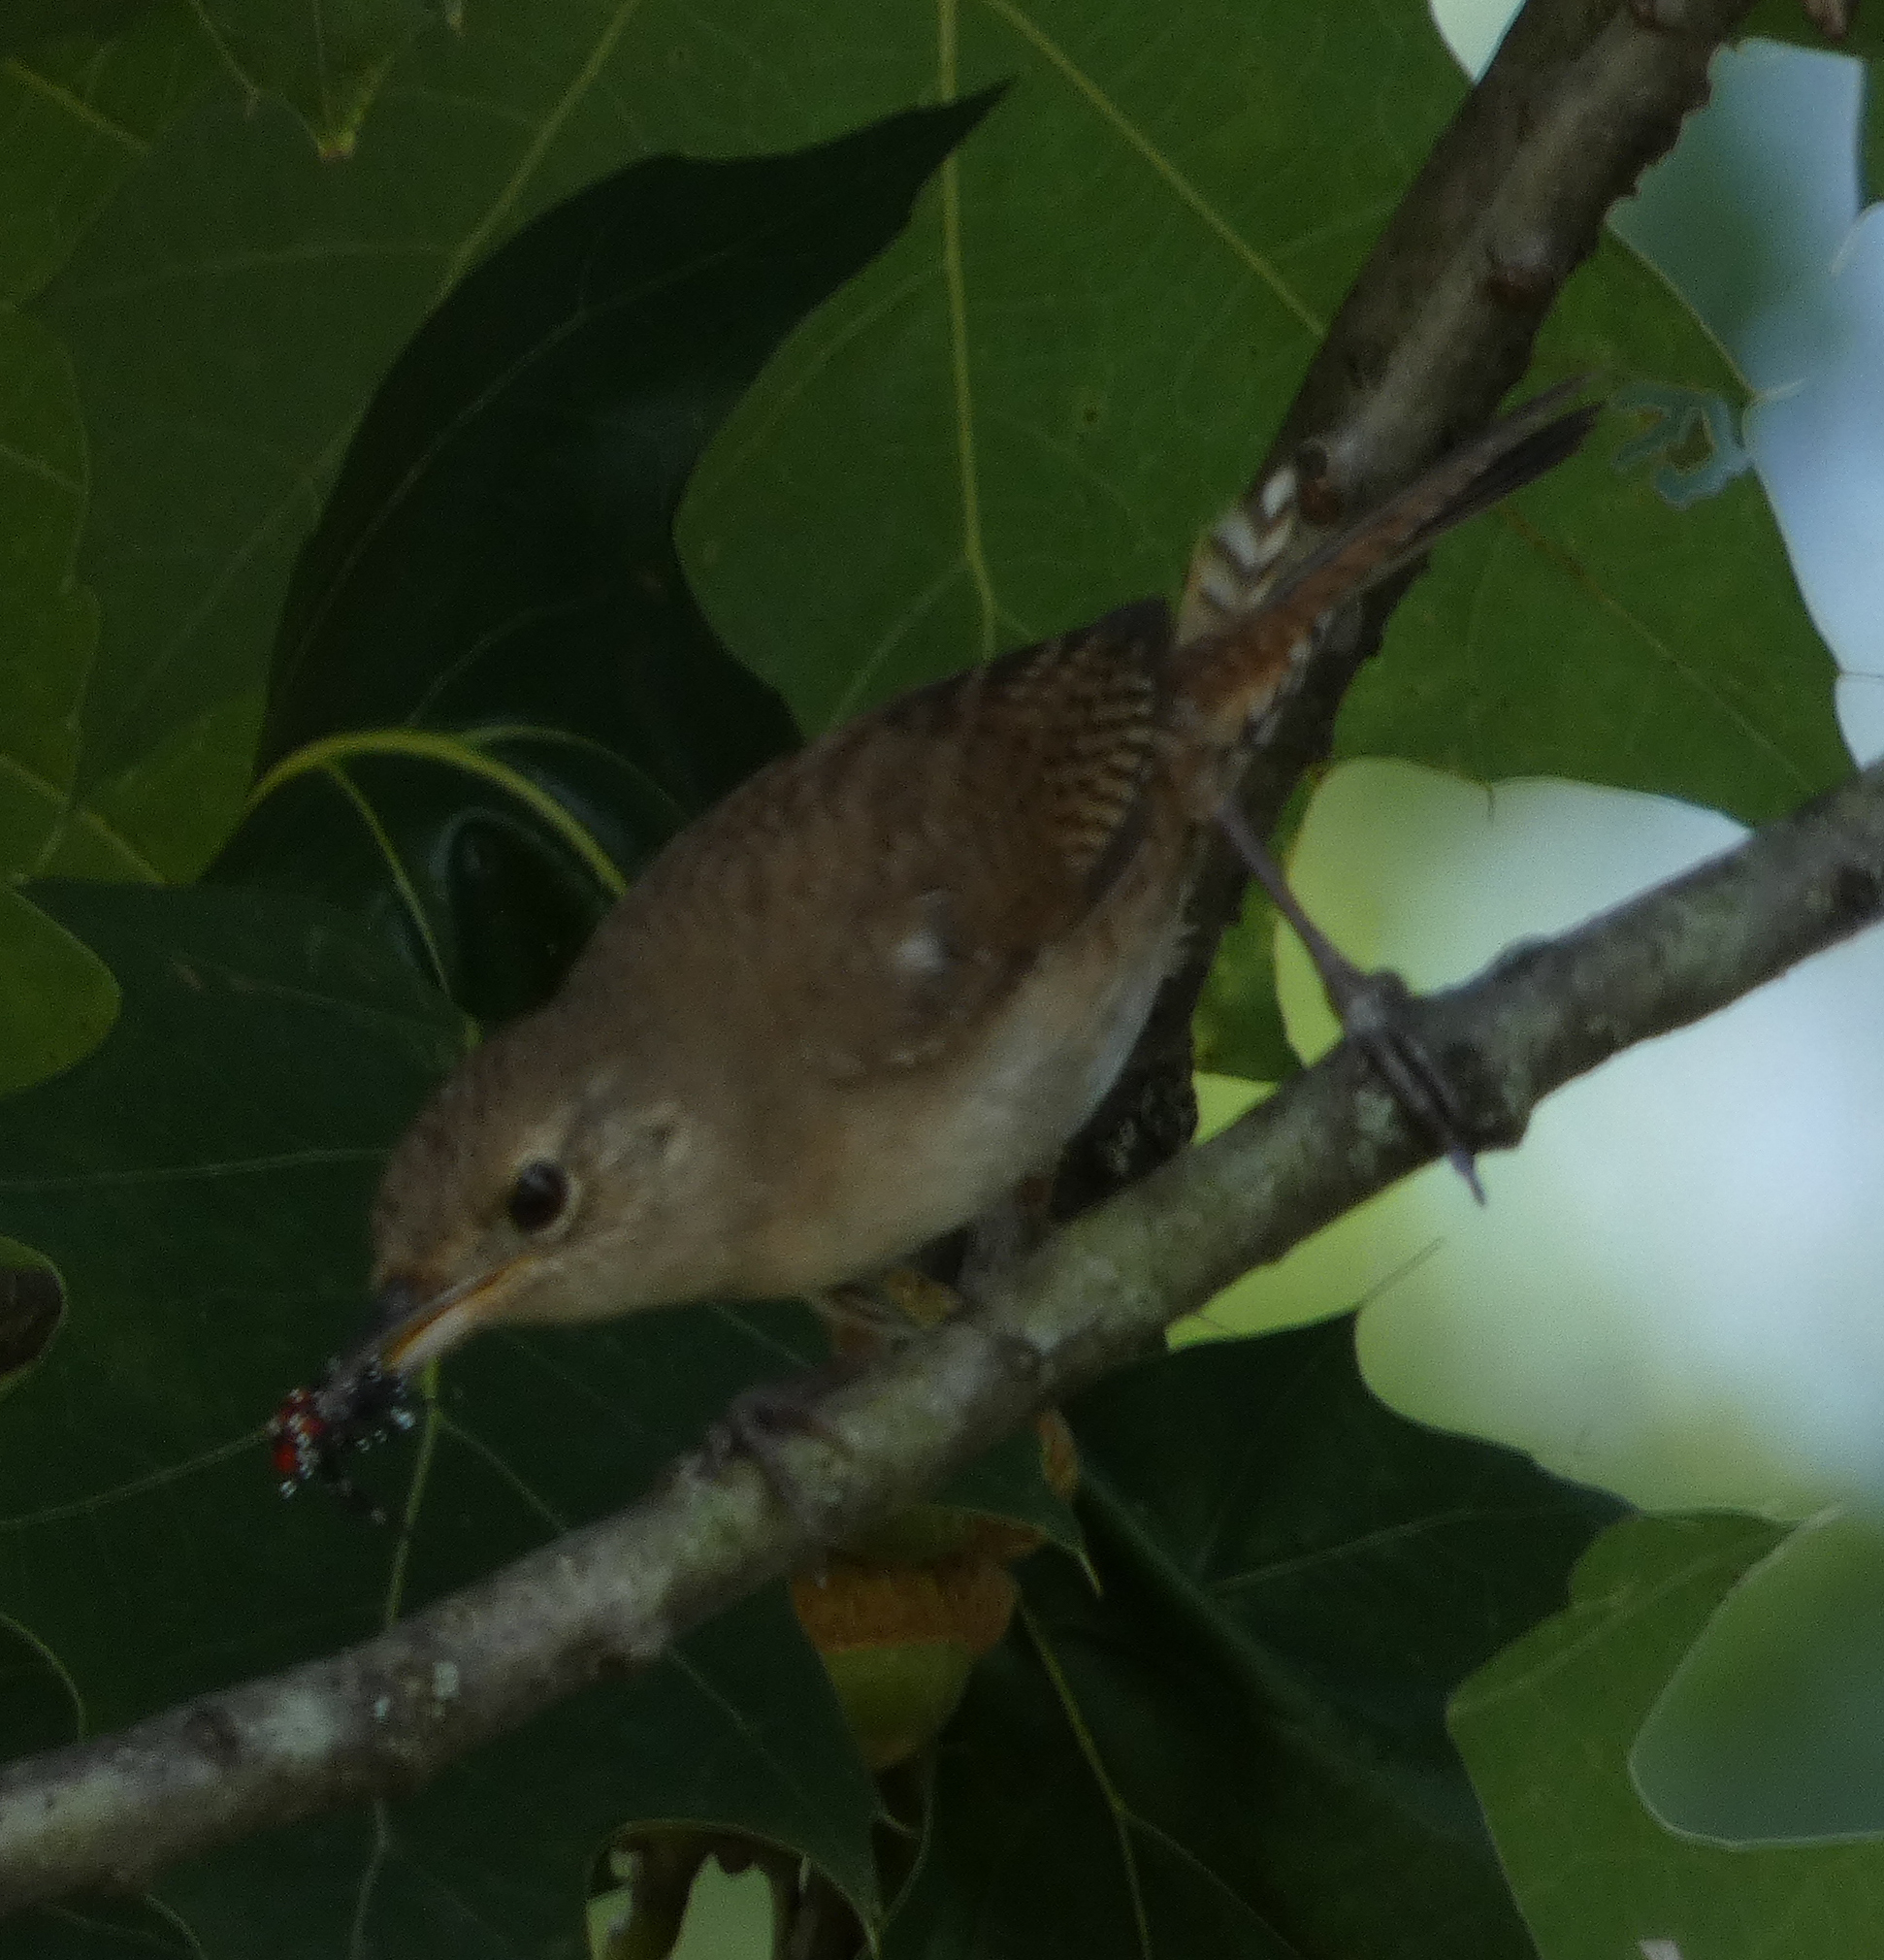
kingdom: Animalia
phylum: Chordata
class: Aves
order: Passeriformes
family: Troglodytidae
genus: Troglodytes
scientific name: Troglodytes aedon
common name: House wren
